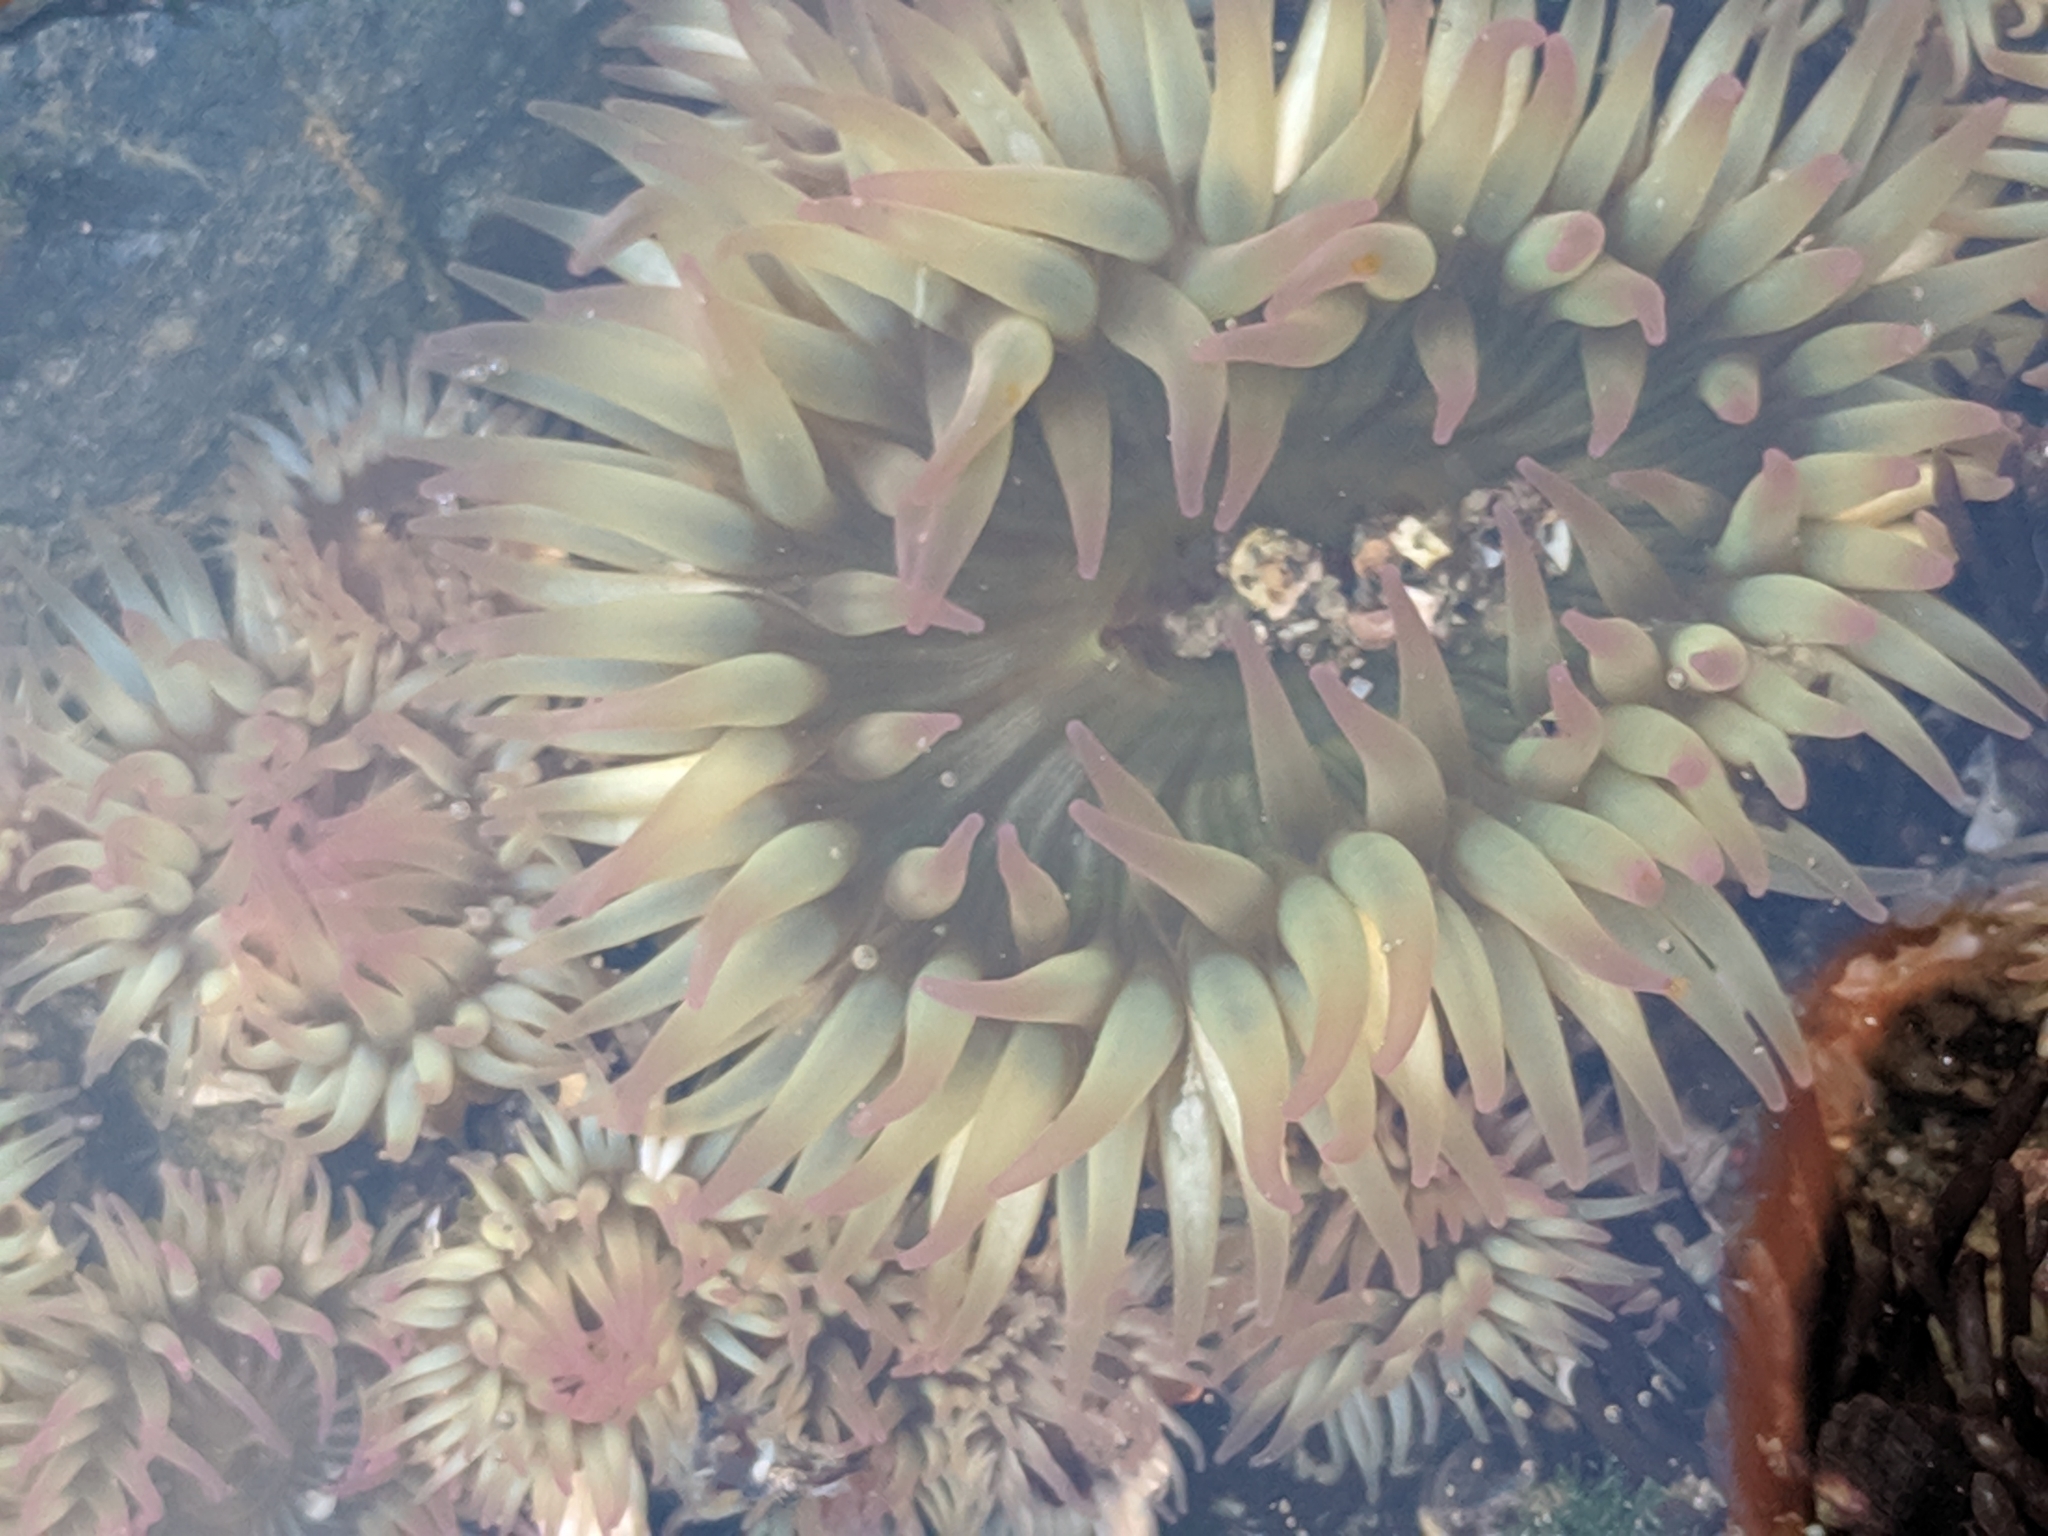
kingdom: Animalia
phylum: Cnidaria
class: Anthozoa
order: Actiniaria
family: Actiniidae
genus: Anthopleura
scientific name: Anthopleura elegantissima
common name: Clonal anemone
